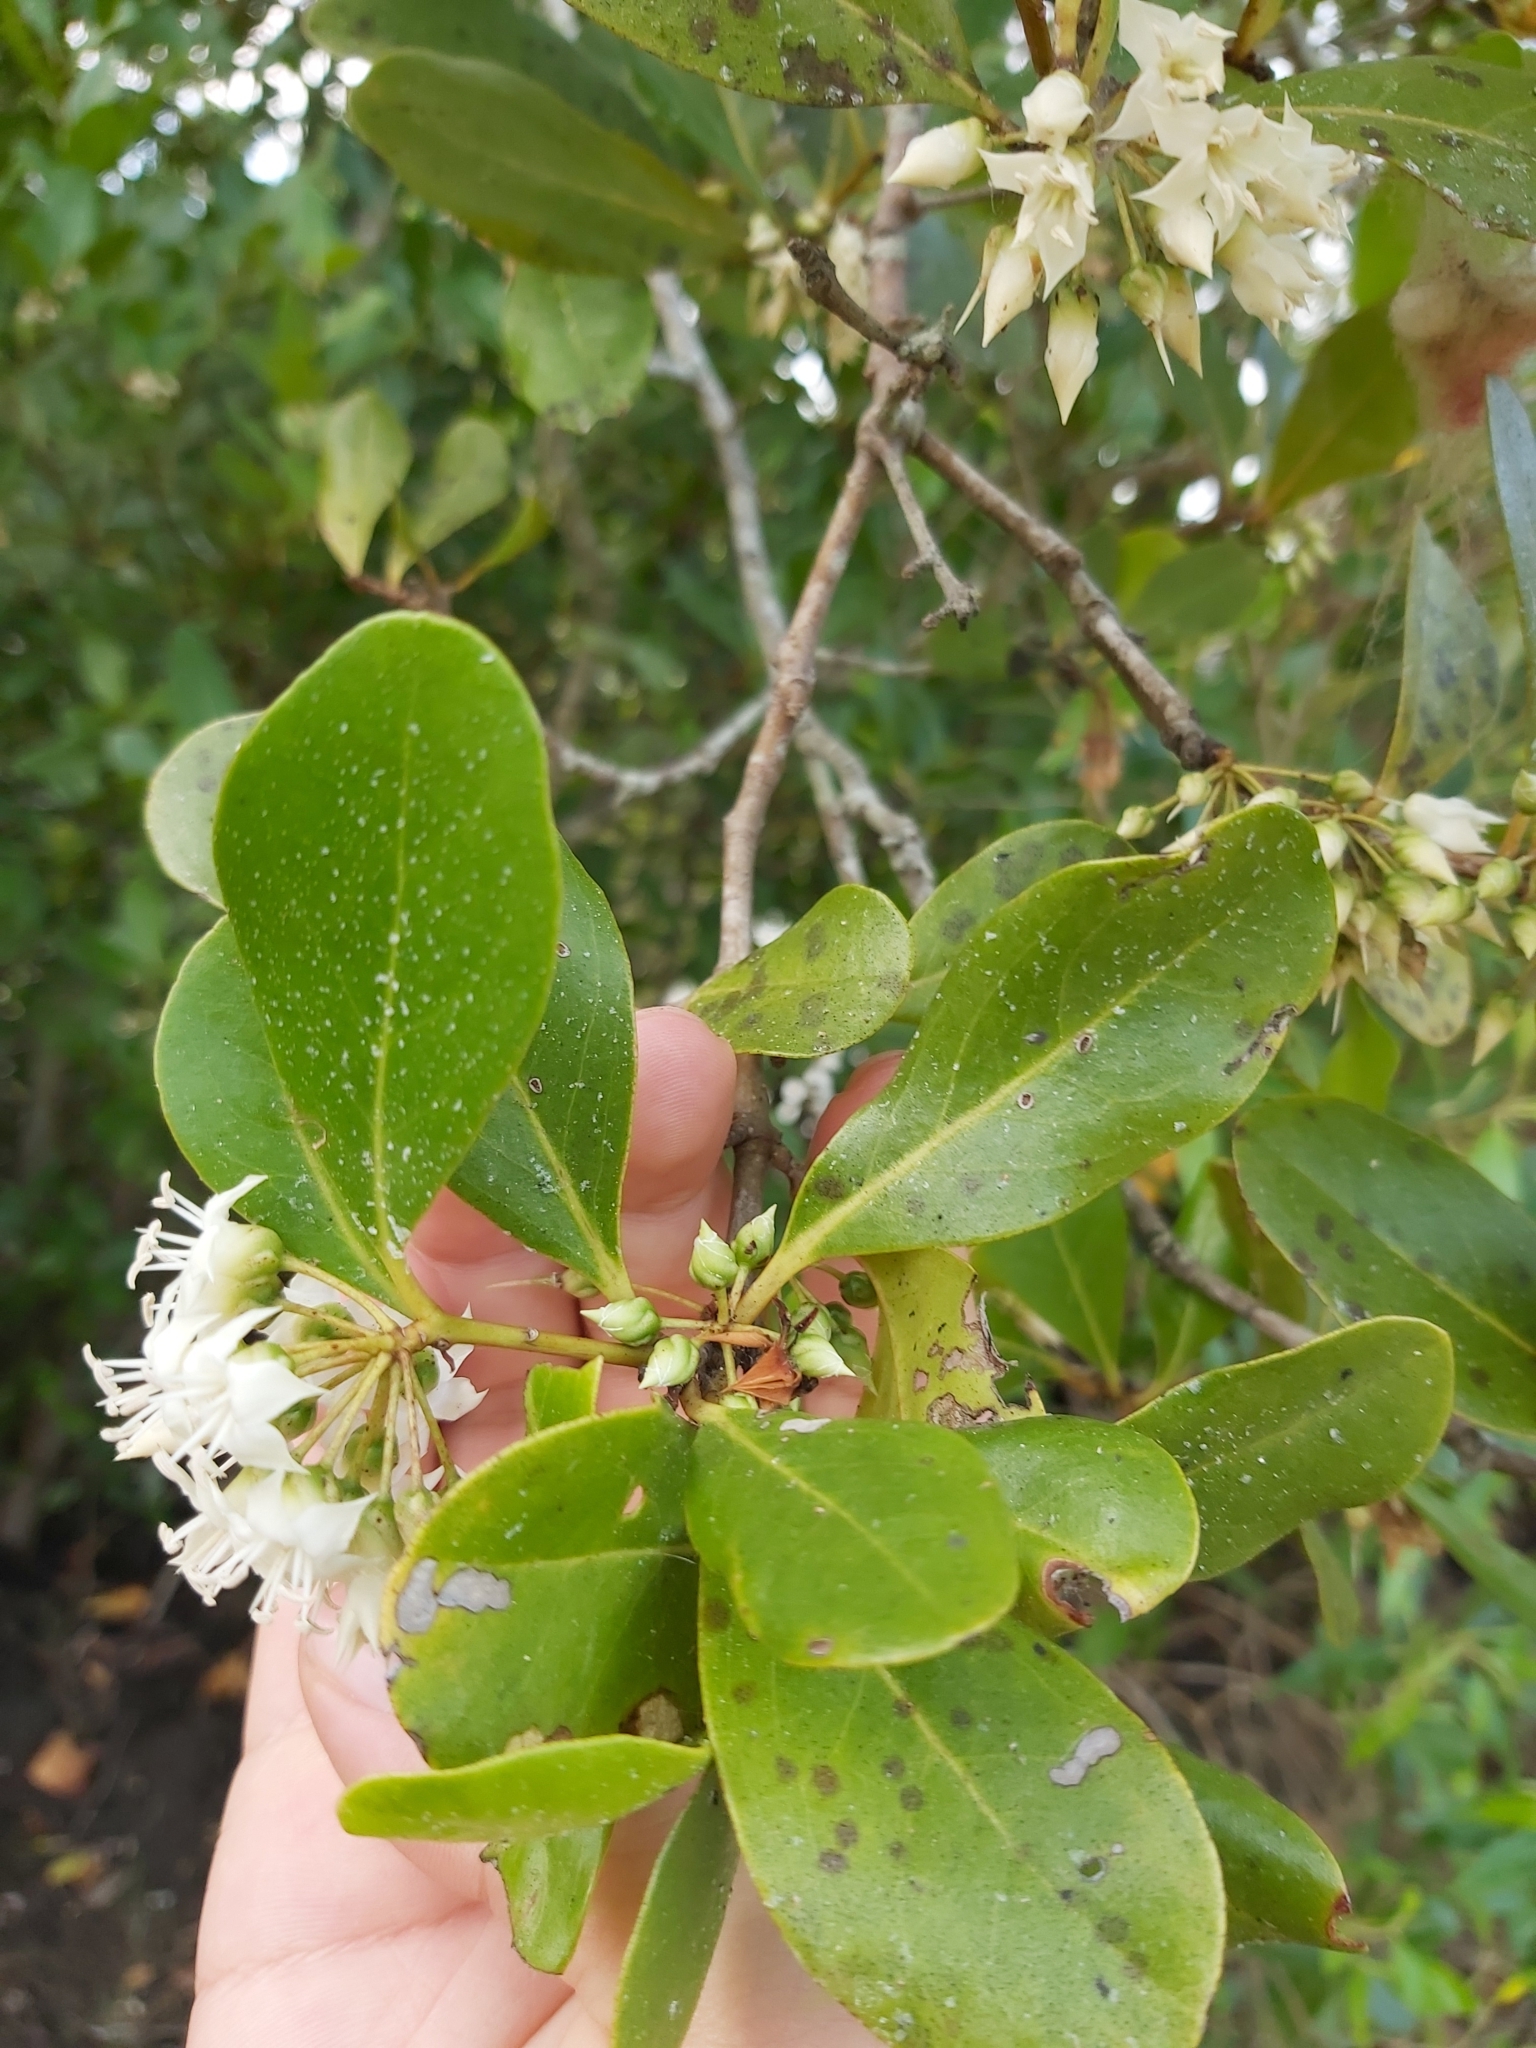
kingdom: Plantae
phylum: Tracheophyta
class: Magnoliopsida
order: Ericales
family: Primulaceae
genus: Aegiceras
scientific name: Aegiceras corniculatum
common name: River mangrove
